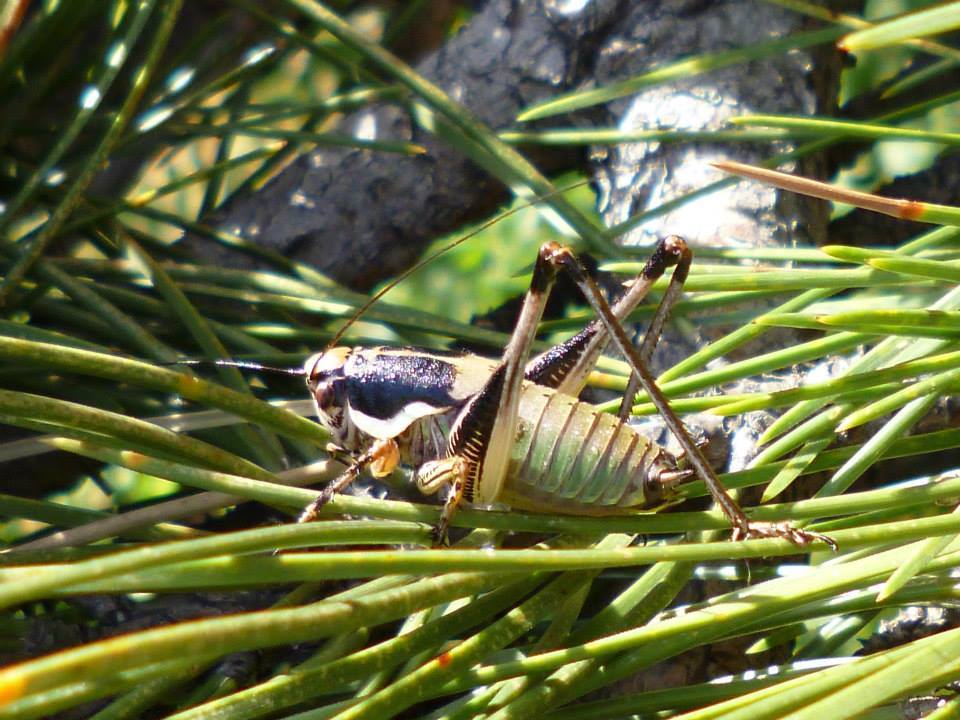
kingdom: Animalia
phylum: Arthropoda
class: Insecta
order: Orthoptera
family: Tettigoniidae
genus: Eupholidoptera
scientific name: Eupholidoptera schmidti
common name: Schmidt's marbled bush-cricket
